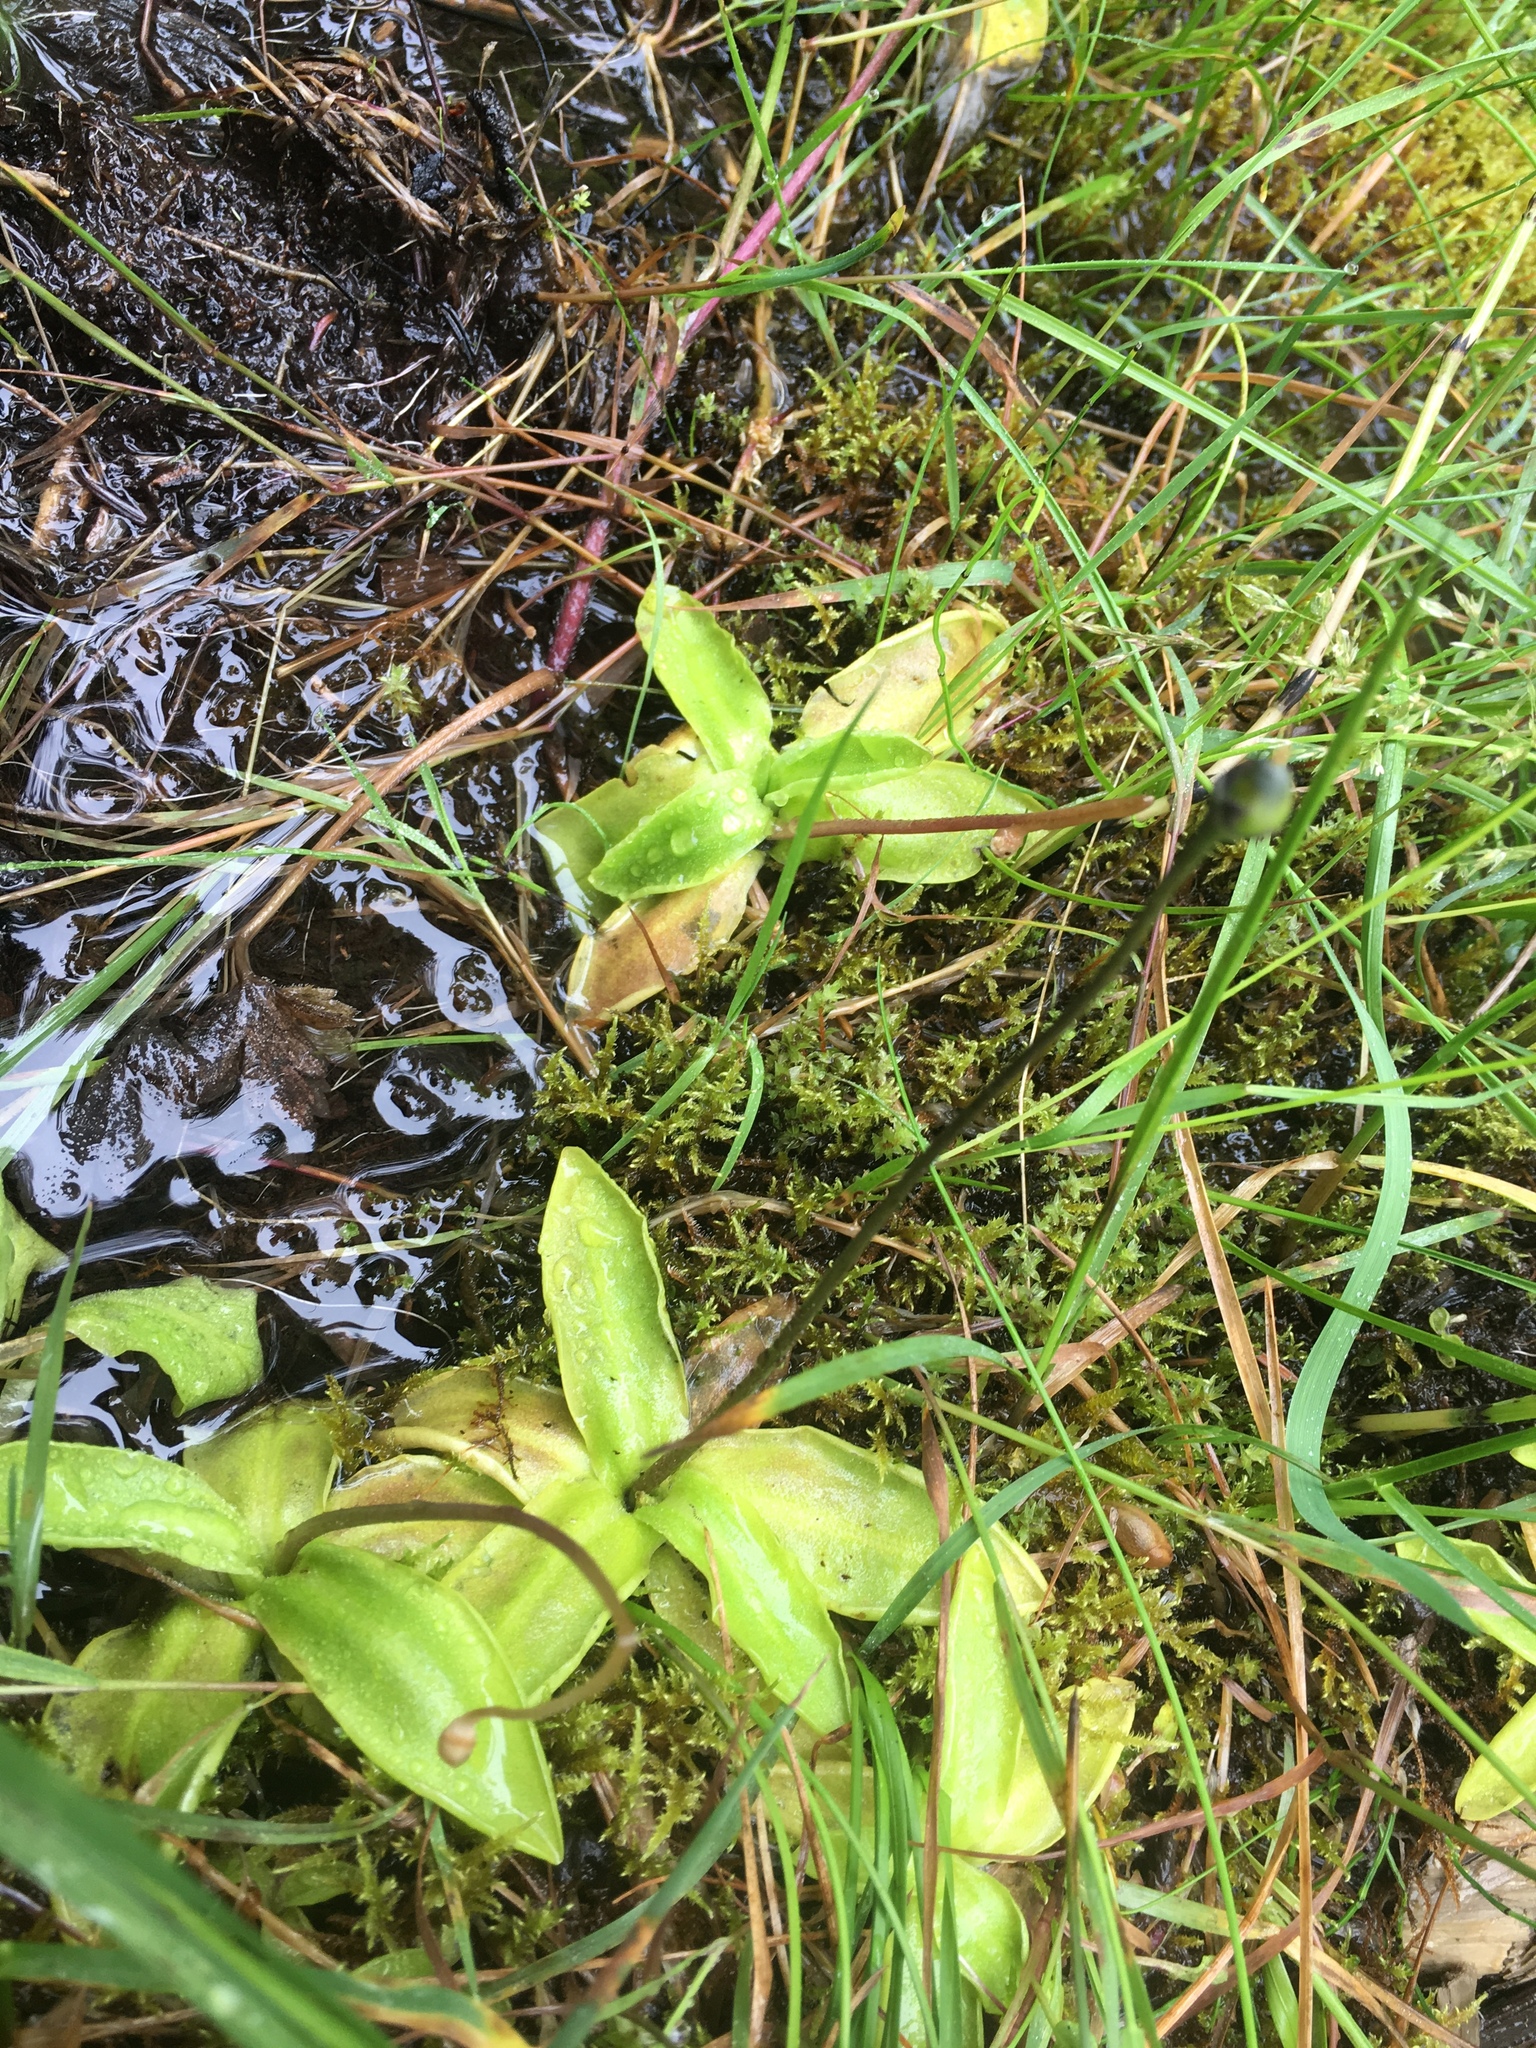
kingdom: Plantae
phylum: Tracheophyta
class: Magnoliopsida
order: Lamiales
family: Lentibulariaceae
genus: Pinguicula
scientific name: Pinguicula vulgaris
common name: Common butterwort
